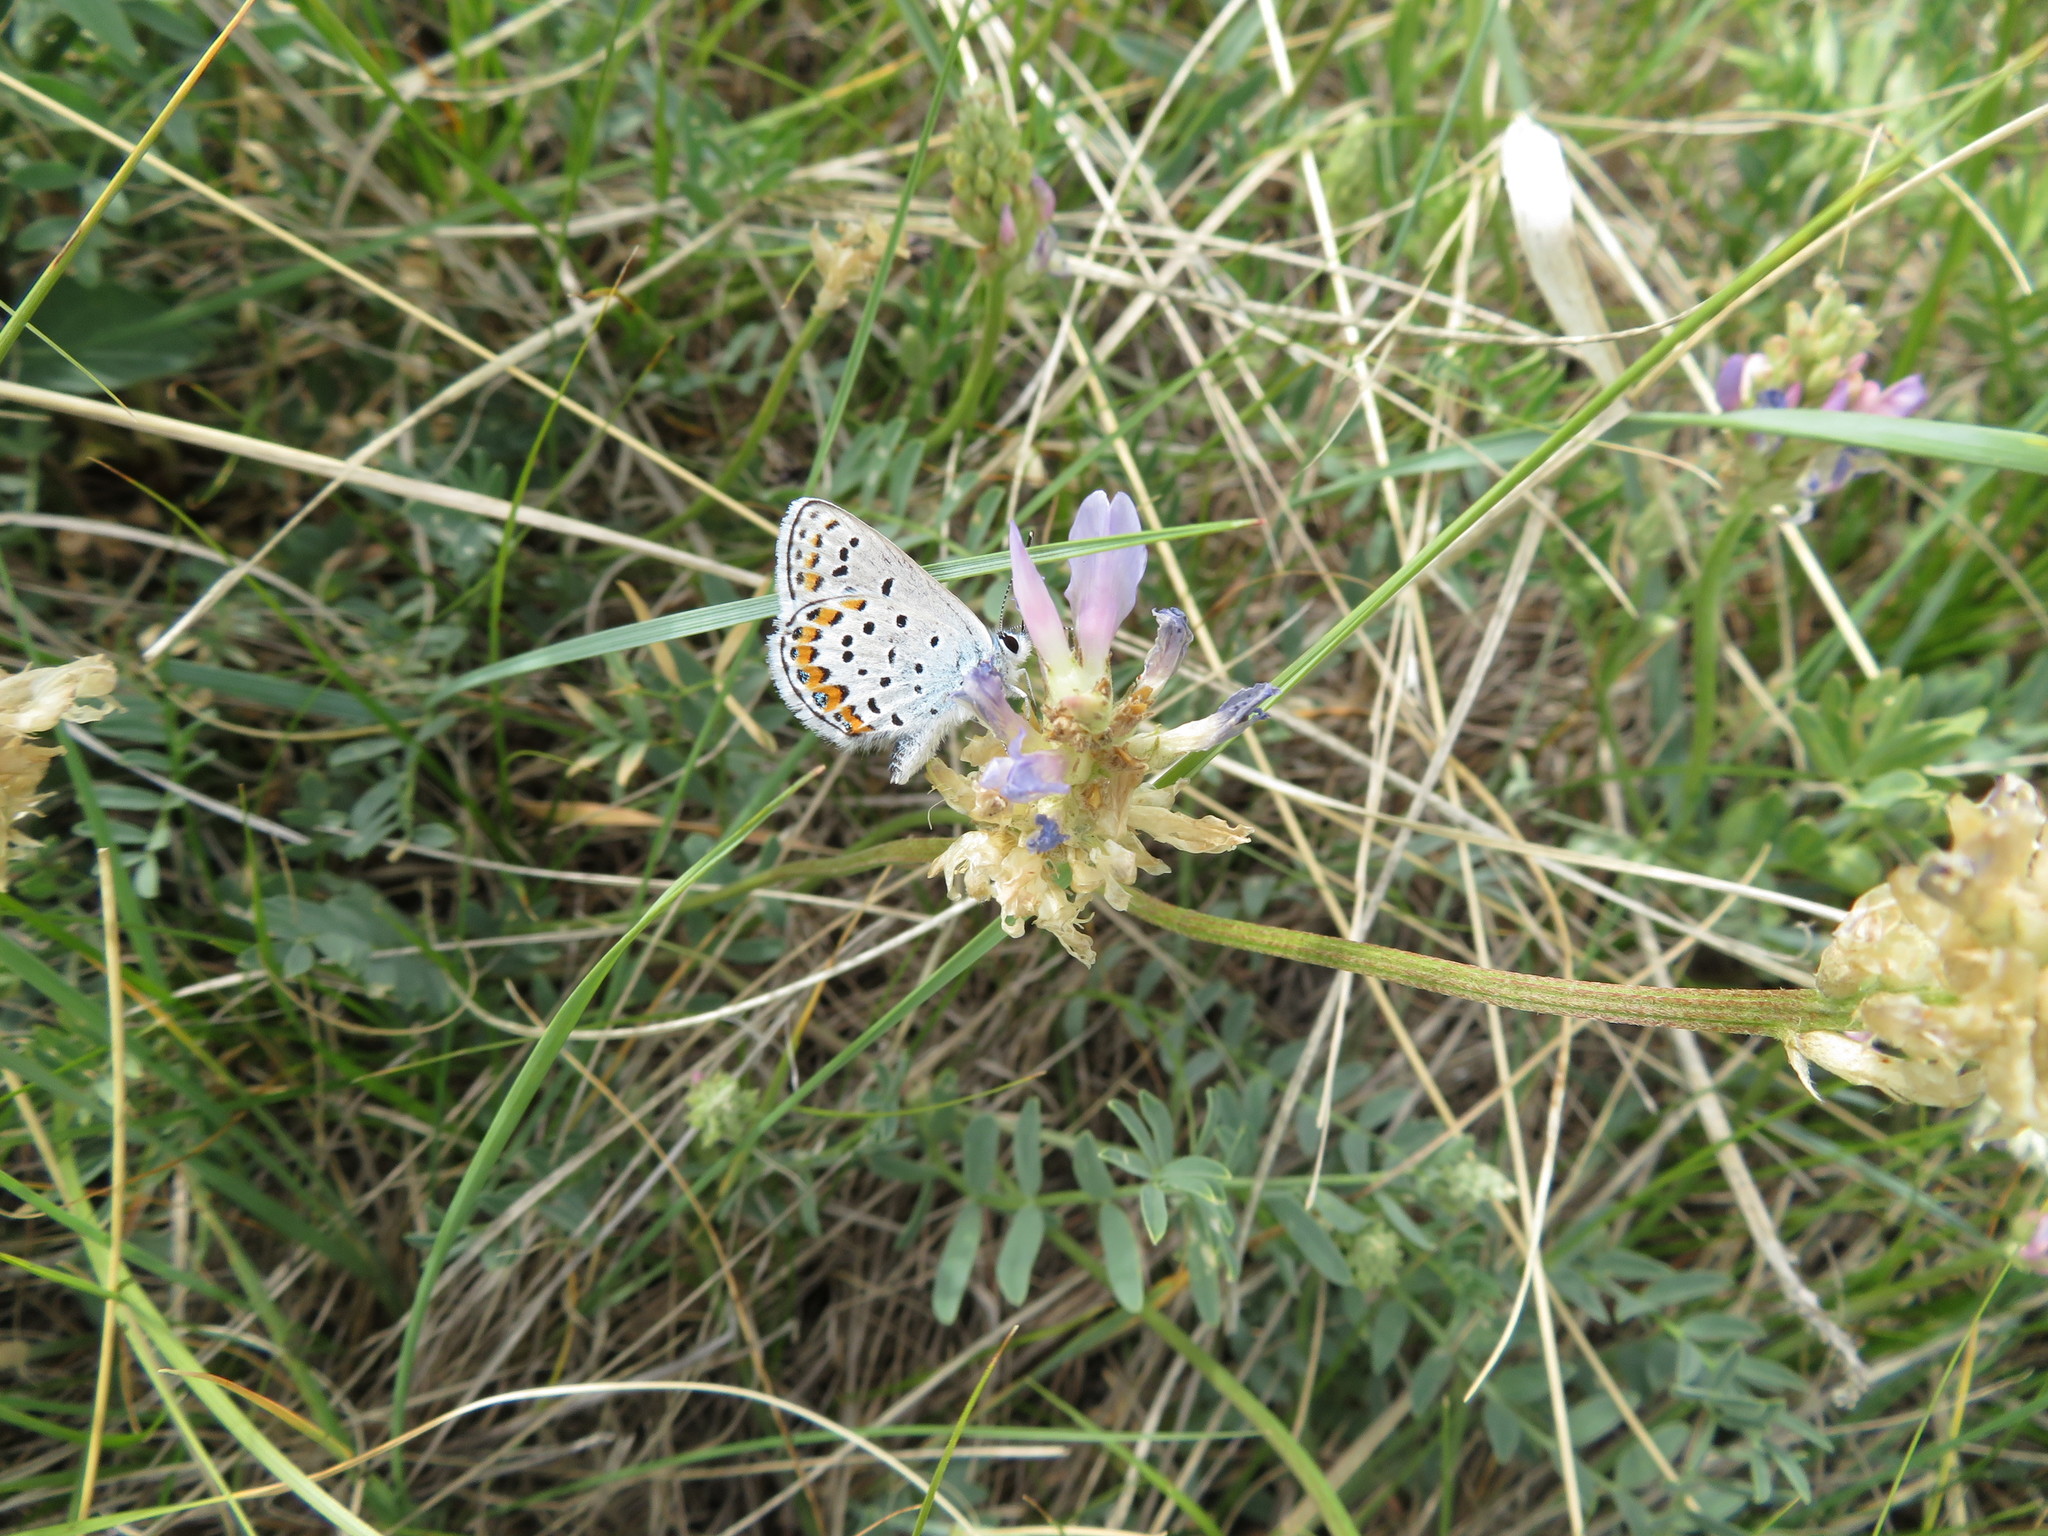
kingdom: Animalia
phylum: Arthropoda
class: Insecta
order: Lepidoptera
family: Lycaenidae
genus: Lycaeides
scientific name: Lycaeides melissa
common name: Melissa blue
